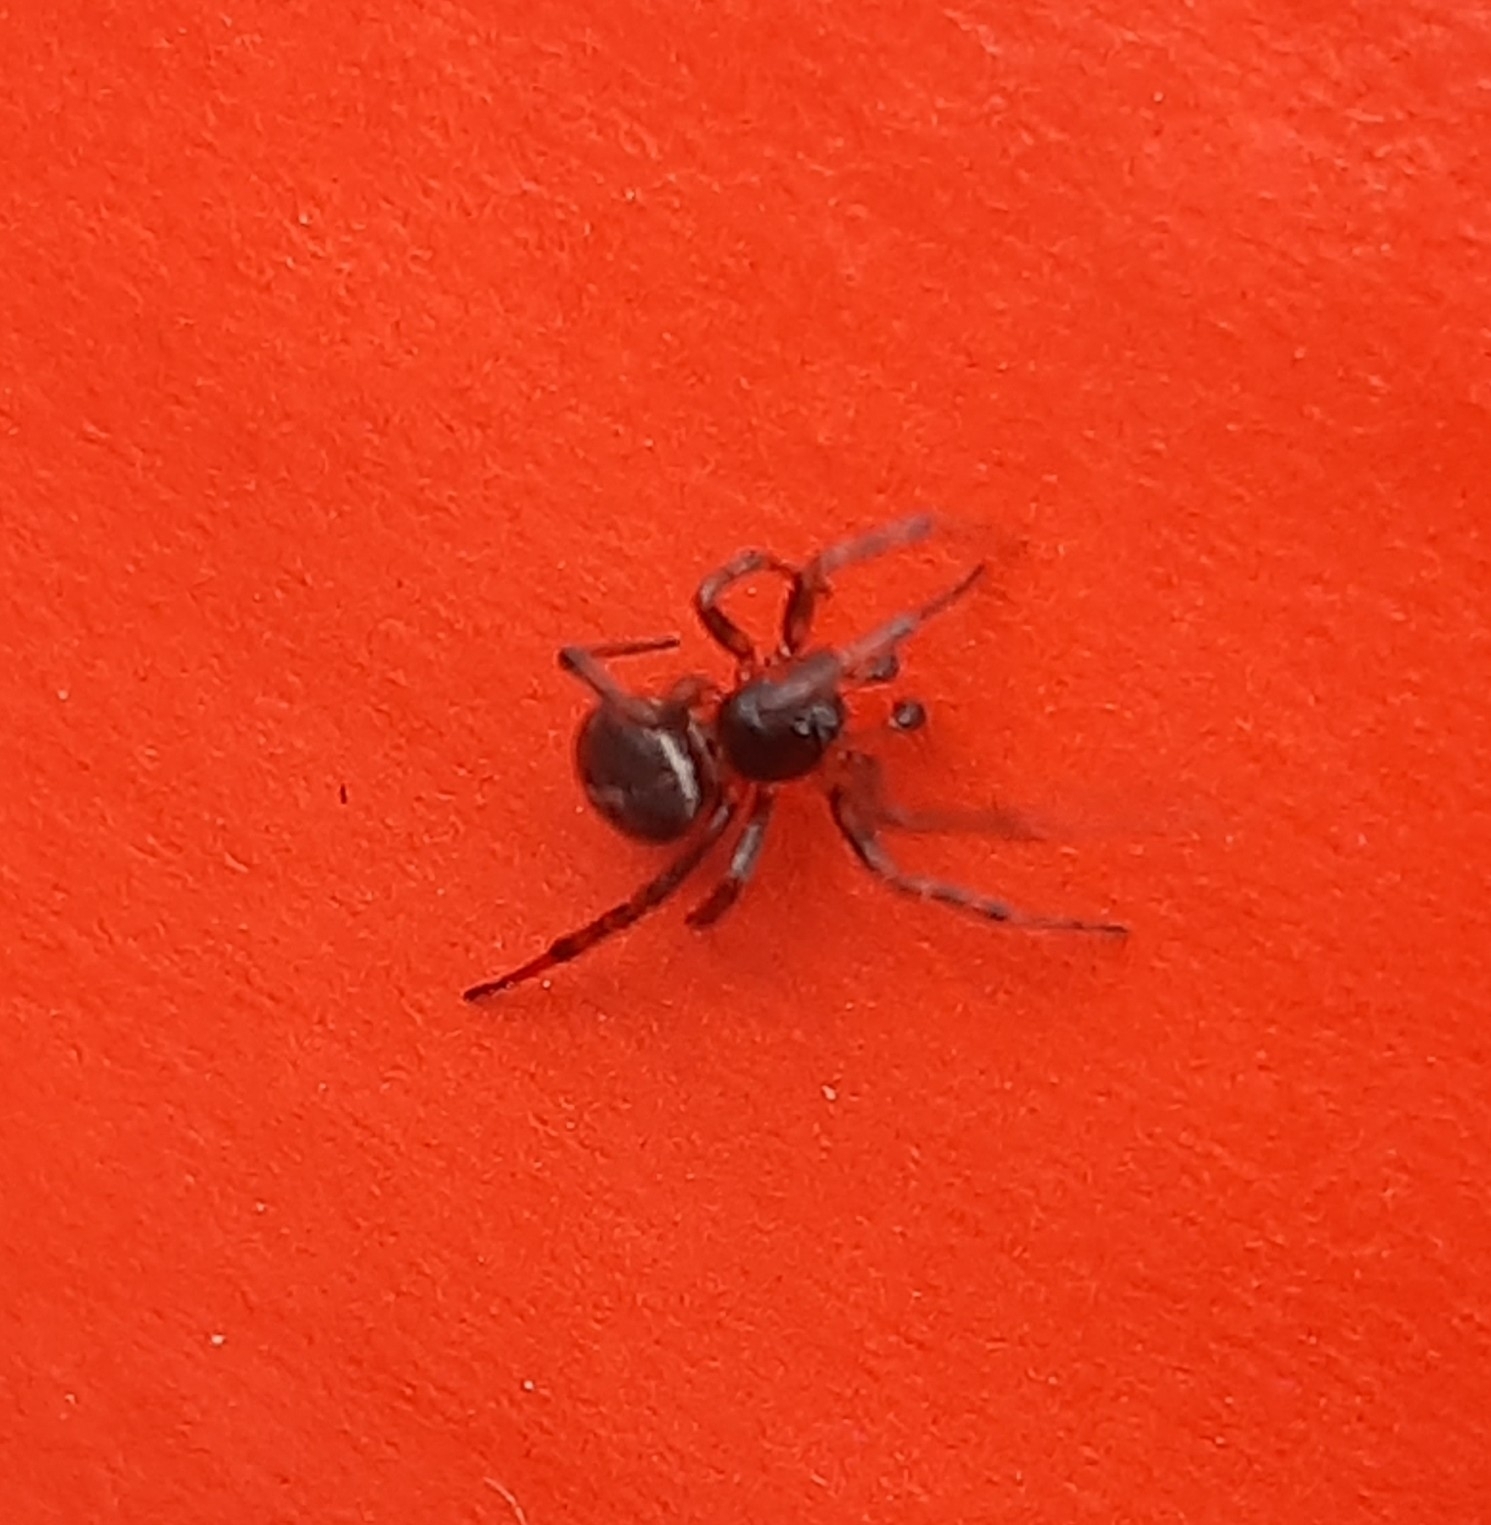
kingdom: Animalia
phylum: Arthropoda
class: Arachnida
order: Araneae
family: Theridiidae
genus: Steatoda
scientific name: Steatoda bipunctata
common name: False widow
